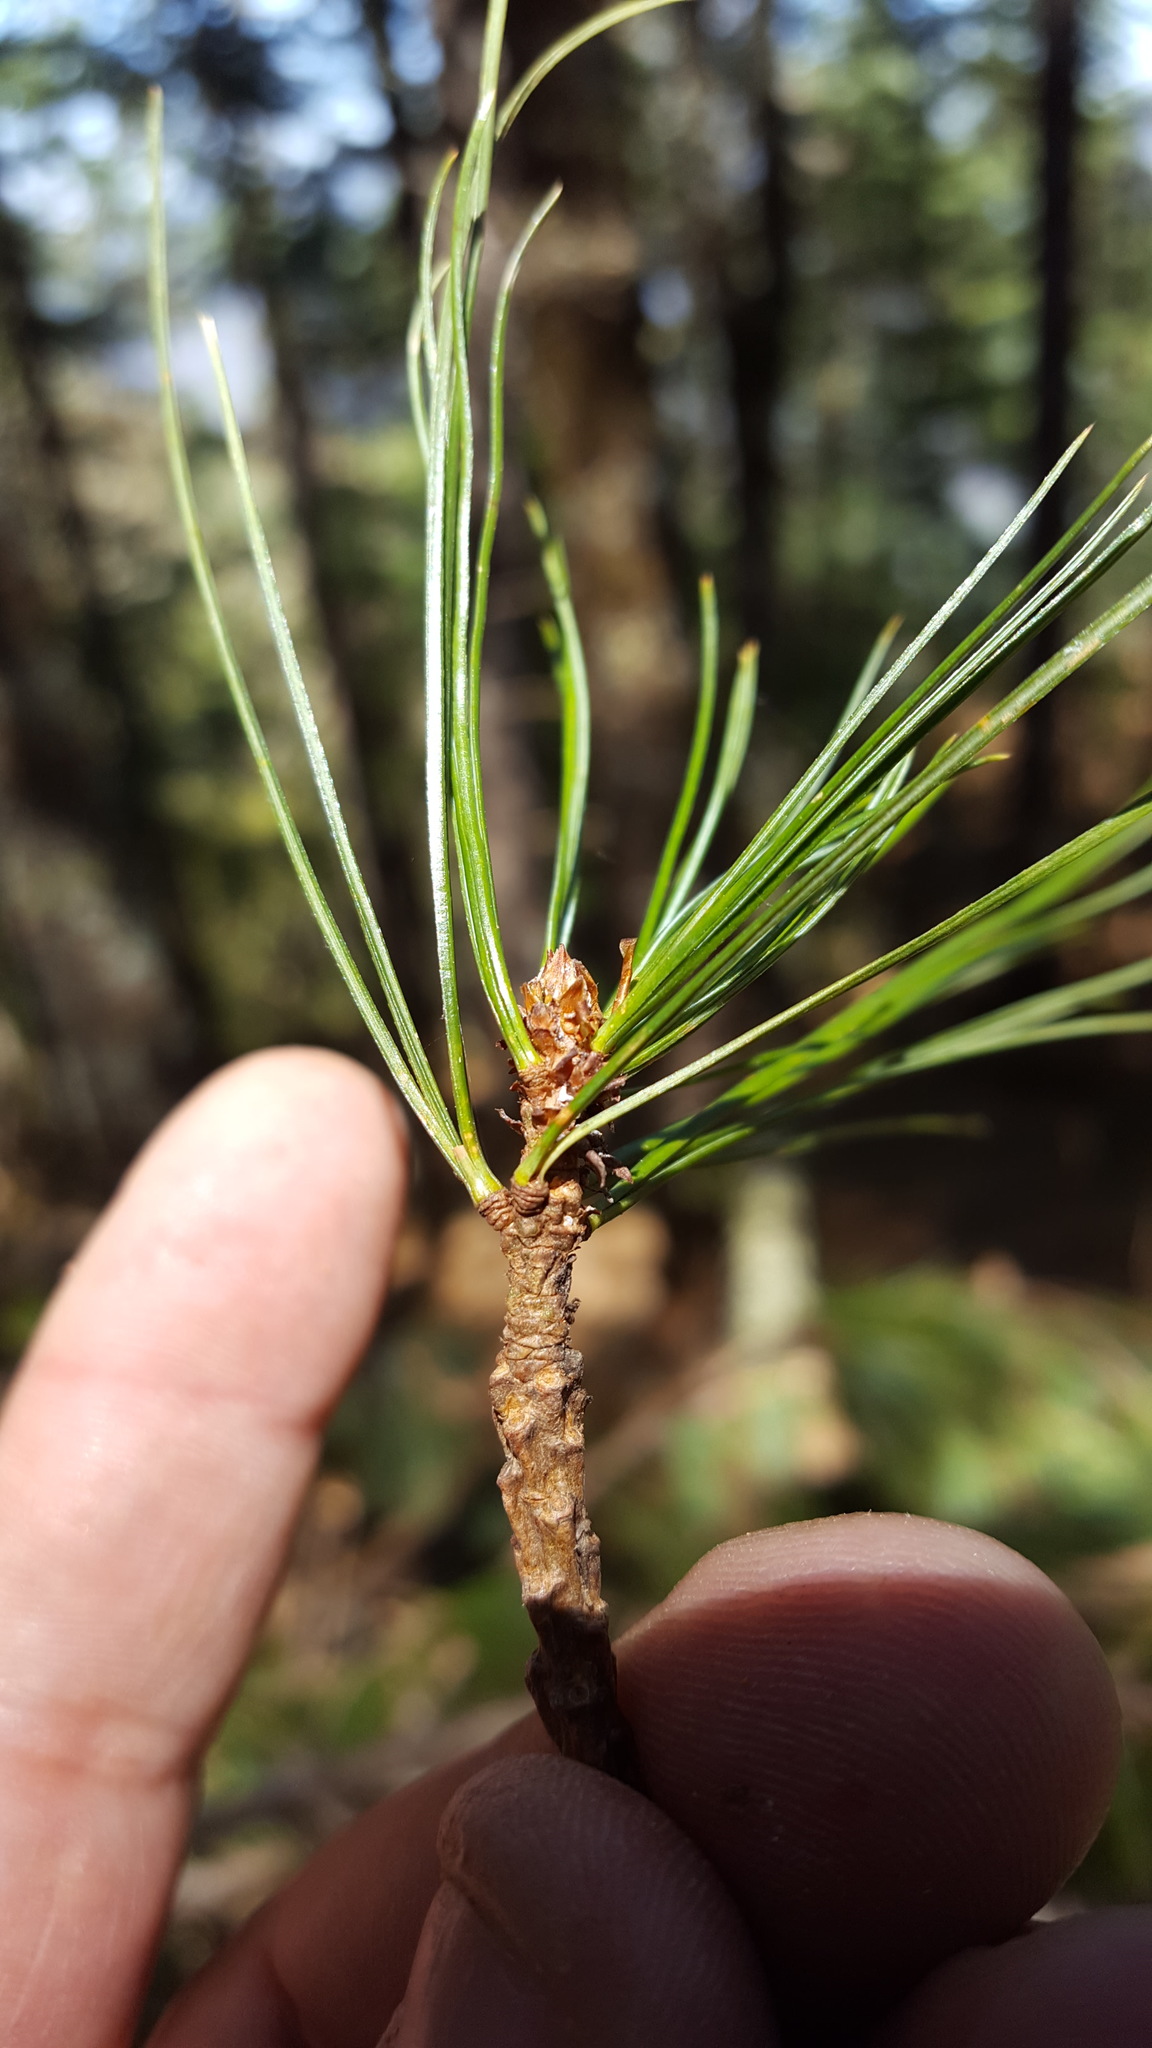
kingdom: Plantae
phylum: Tracheophyta
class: Pinopsida
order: Pinales
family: Pinaceae
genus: Pinus
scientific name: Pinus ayacahuite
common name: Mexican white pine
